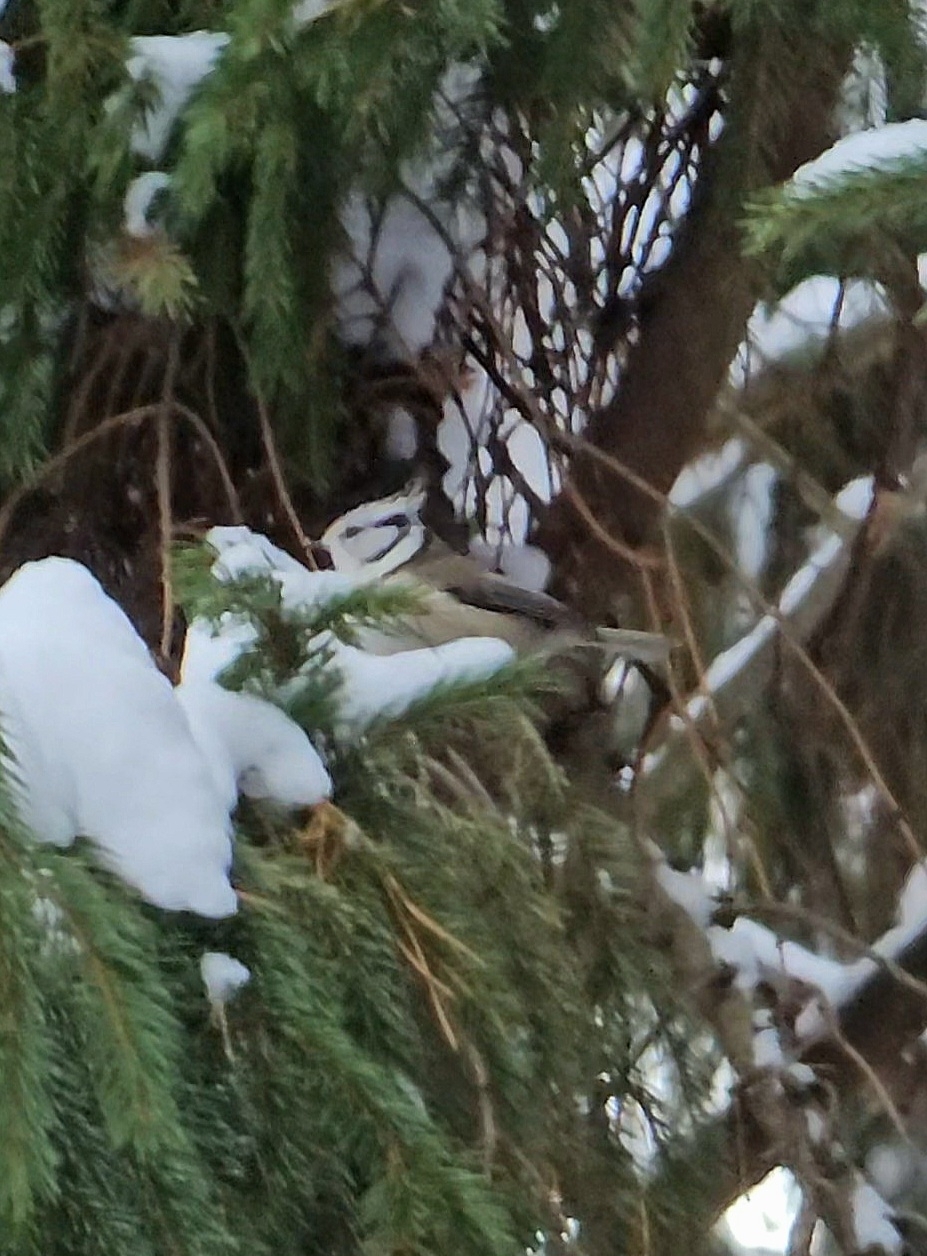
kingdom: Animalia
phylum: Chordata
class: Aves
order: Passeriformes
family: Paridae
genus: Lophophanes
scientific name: Lophophanes cristatus
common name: European crested tit
